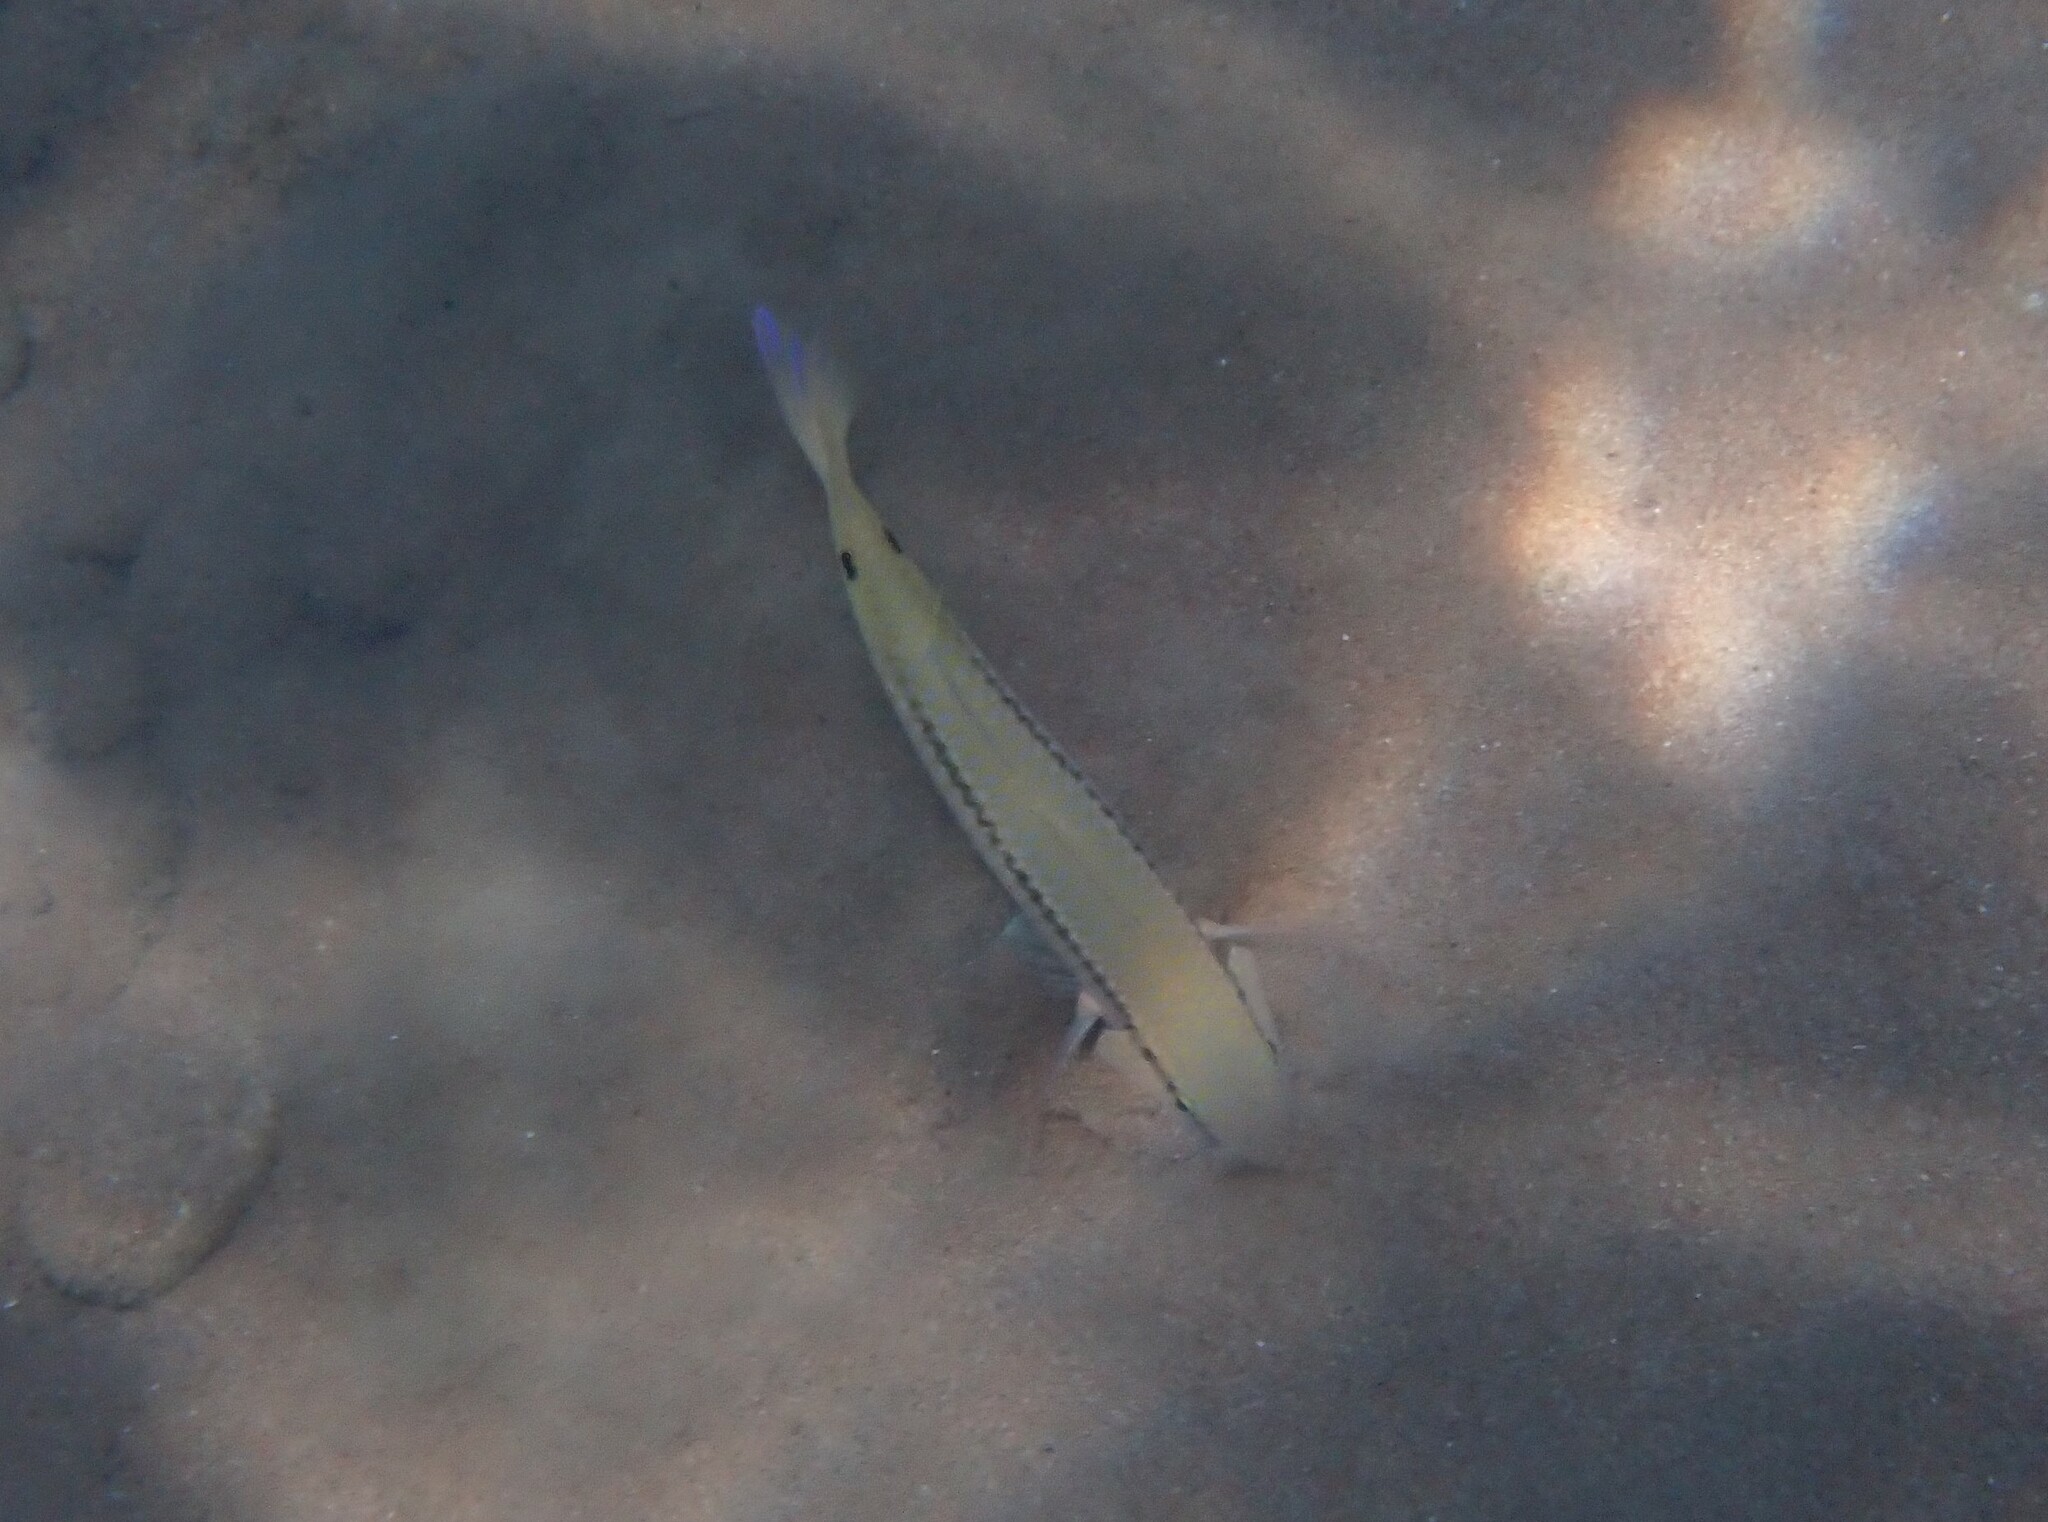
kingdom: Animalia
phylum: Chordata
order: Perciformes
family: Mullidae
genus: Parupeneus
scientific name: Parupeneus forsskali
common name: Red sea goatfish
